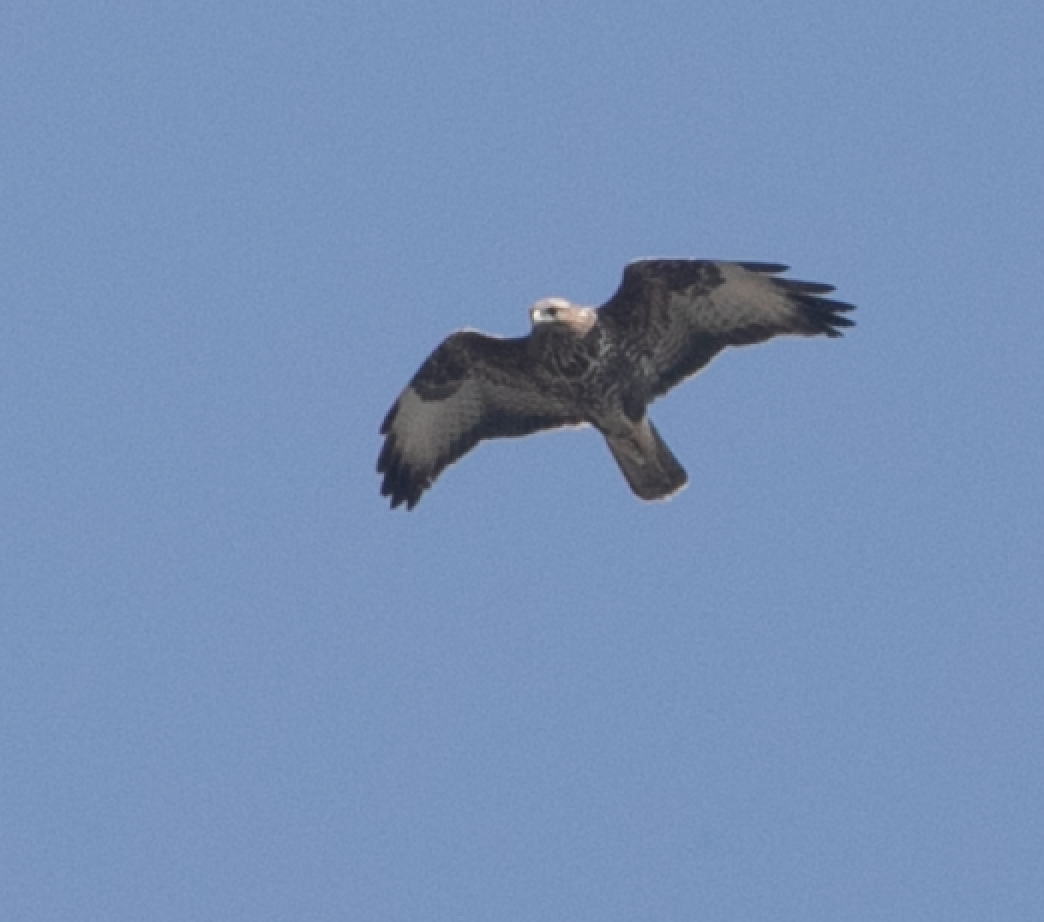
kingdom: Animalia
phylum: Chordata
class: Aves
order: Accipitriformes
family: Accipitridae
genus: Buteo
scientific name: Buteo buteo
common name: Common buzzard
